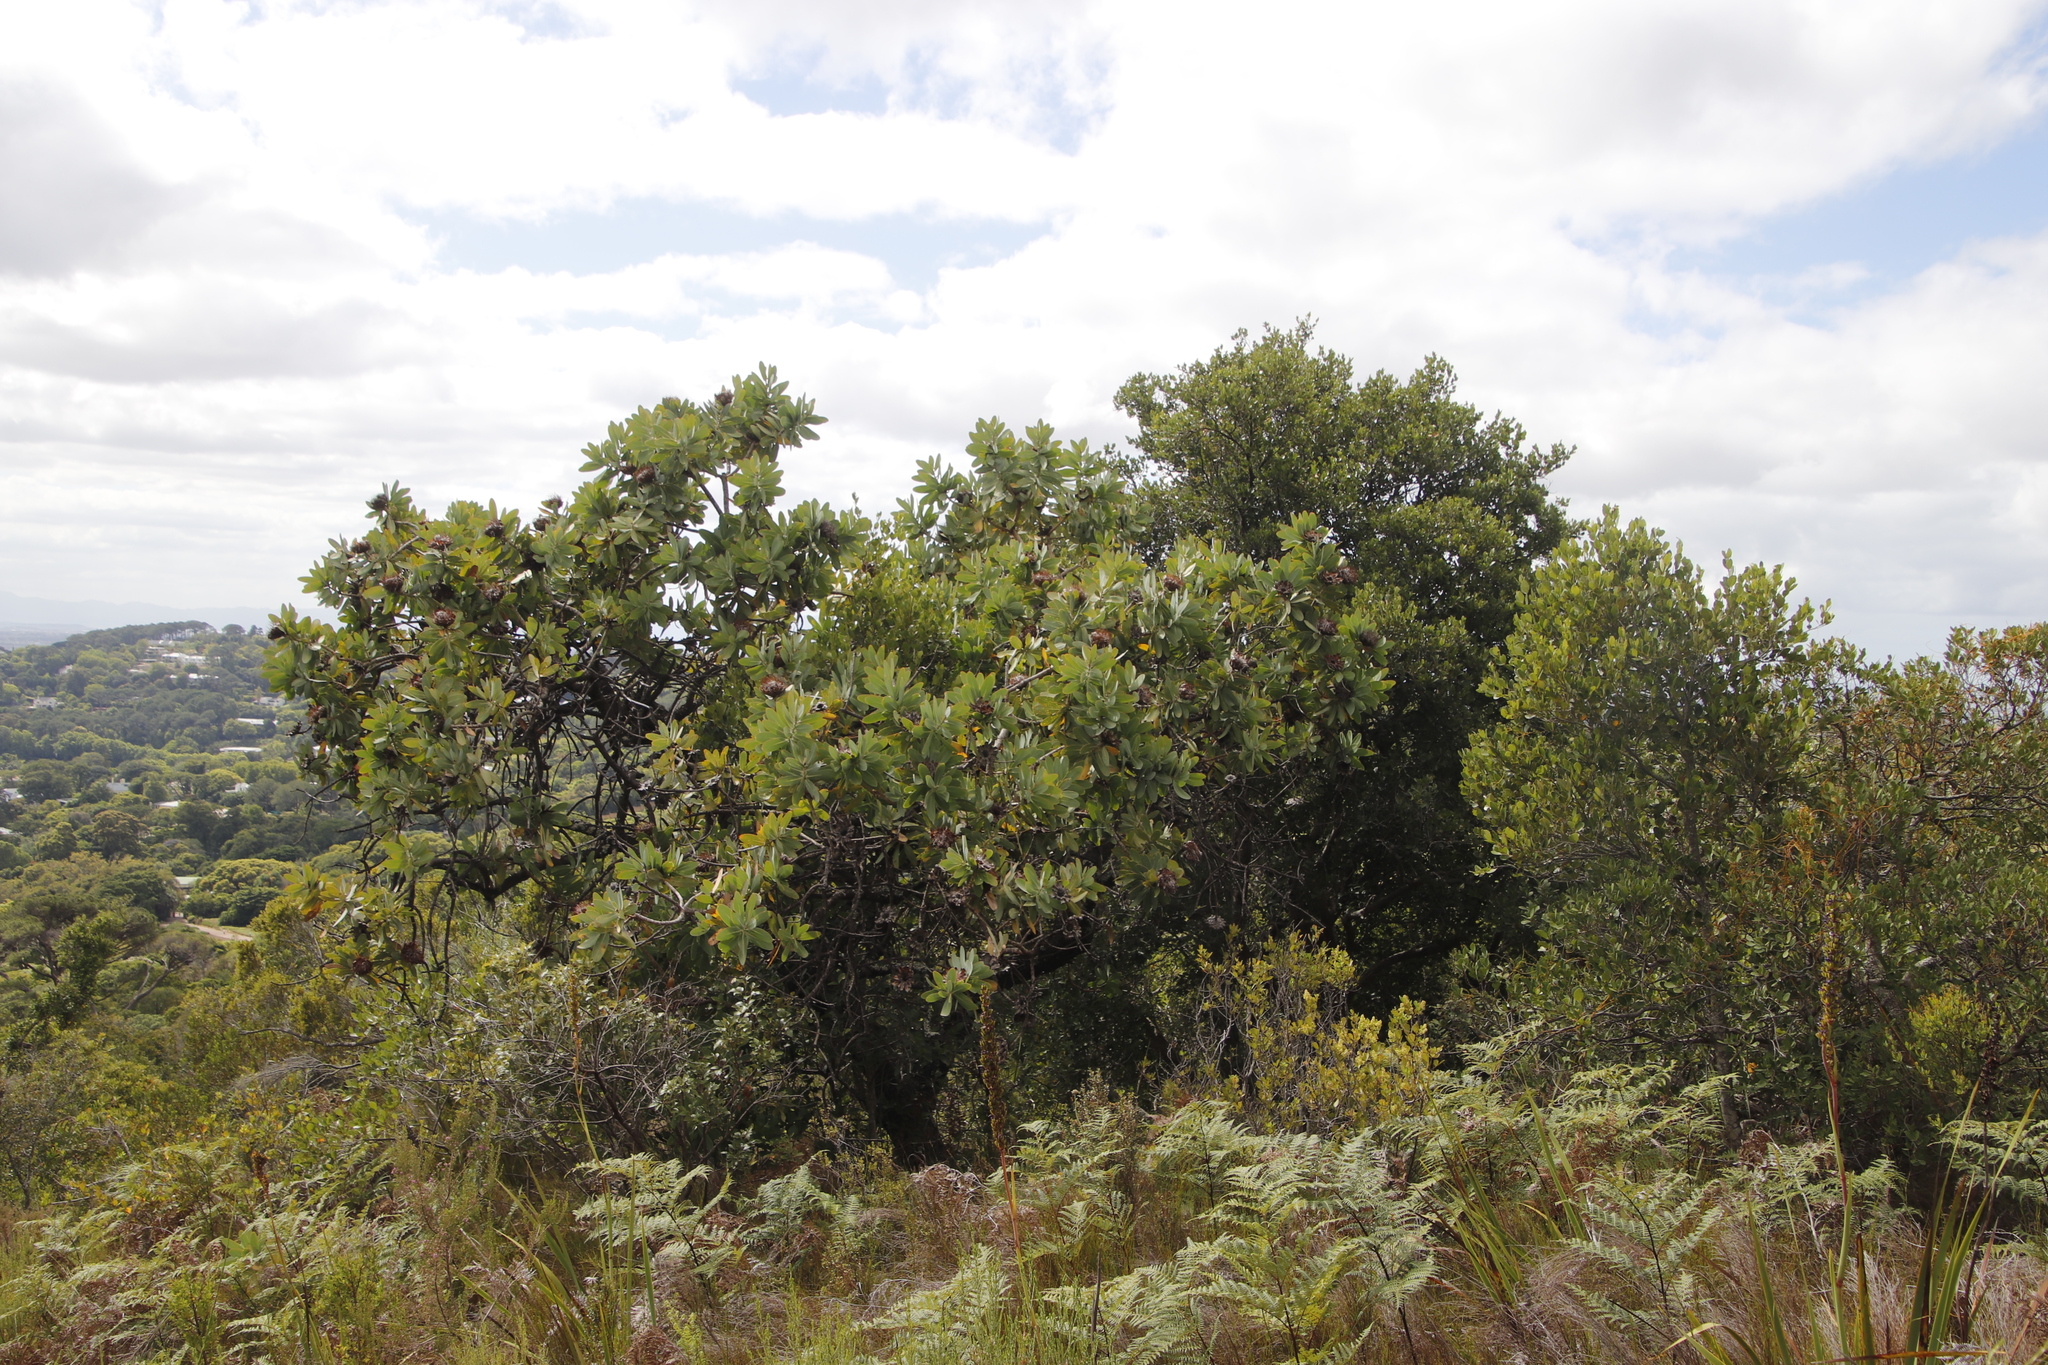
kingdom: Plantae
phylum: Tracheophyta
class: Magnoliopsida
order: Proteales
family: Proteaceae
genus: Protea
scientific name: Protea nitida
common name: Tree protea
